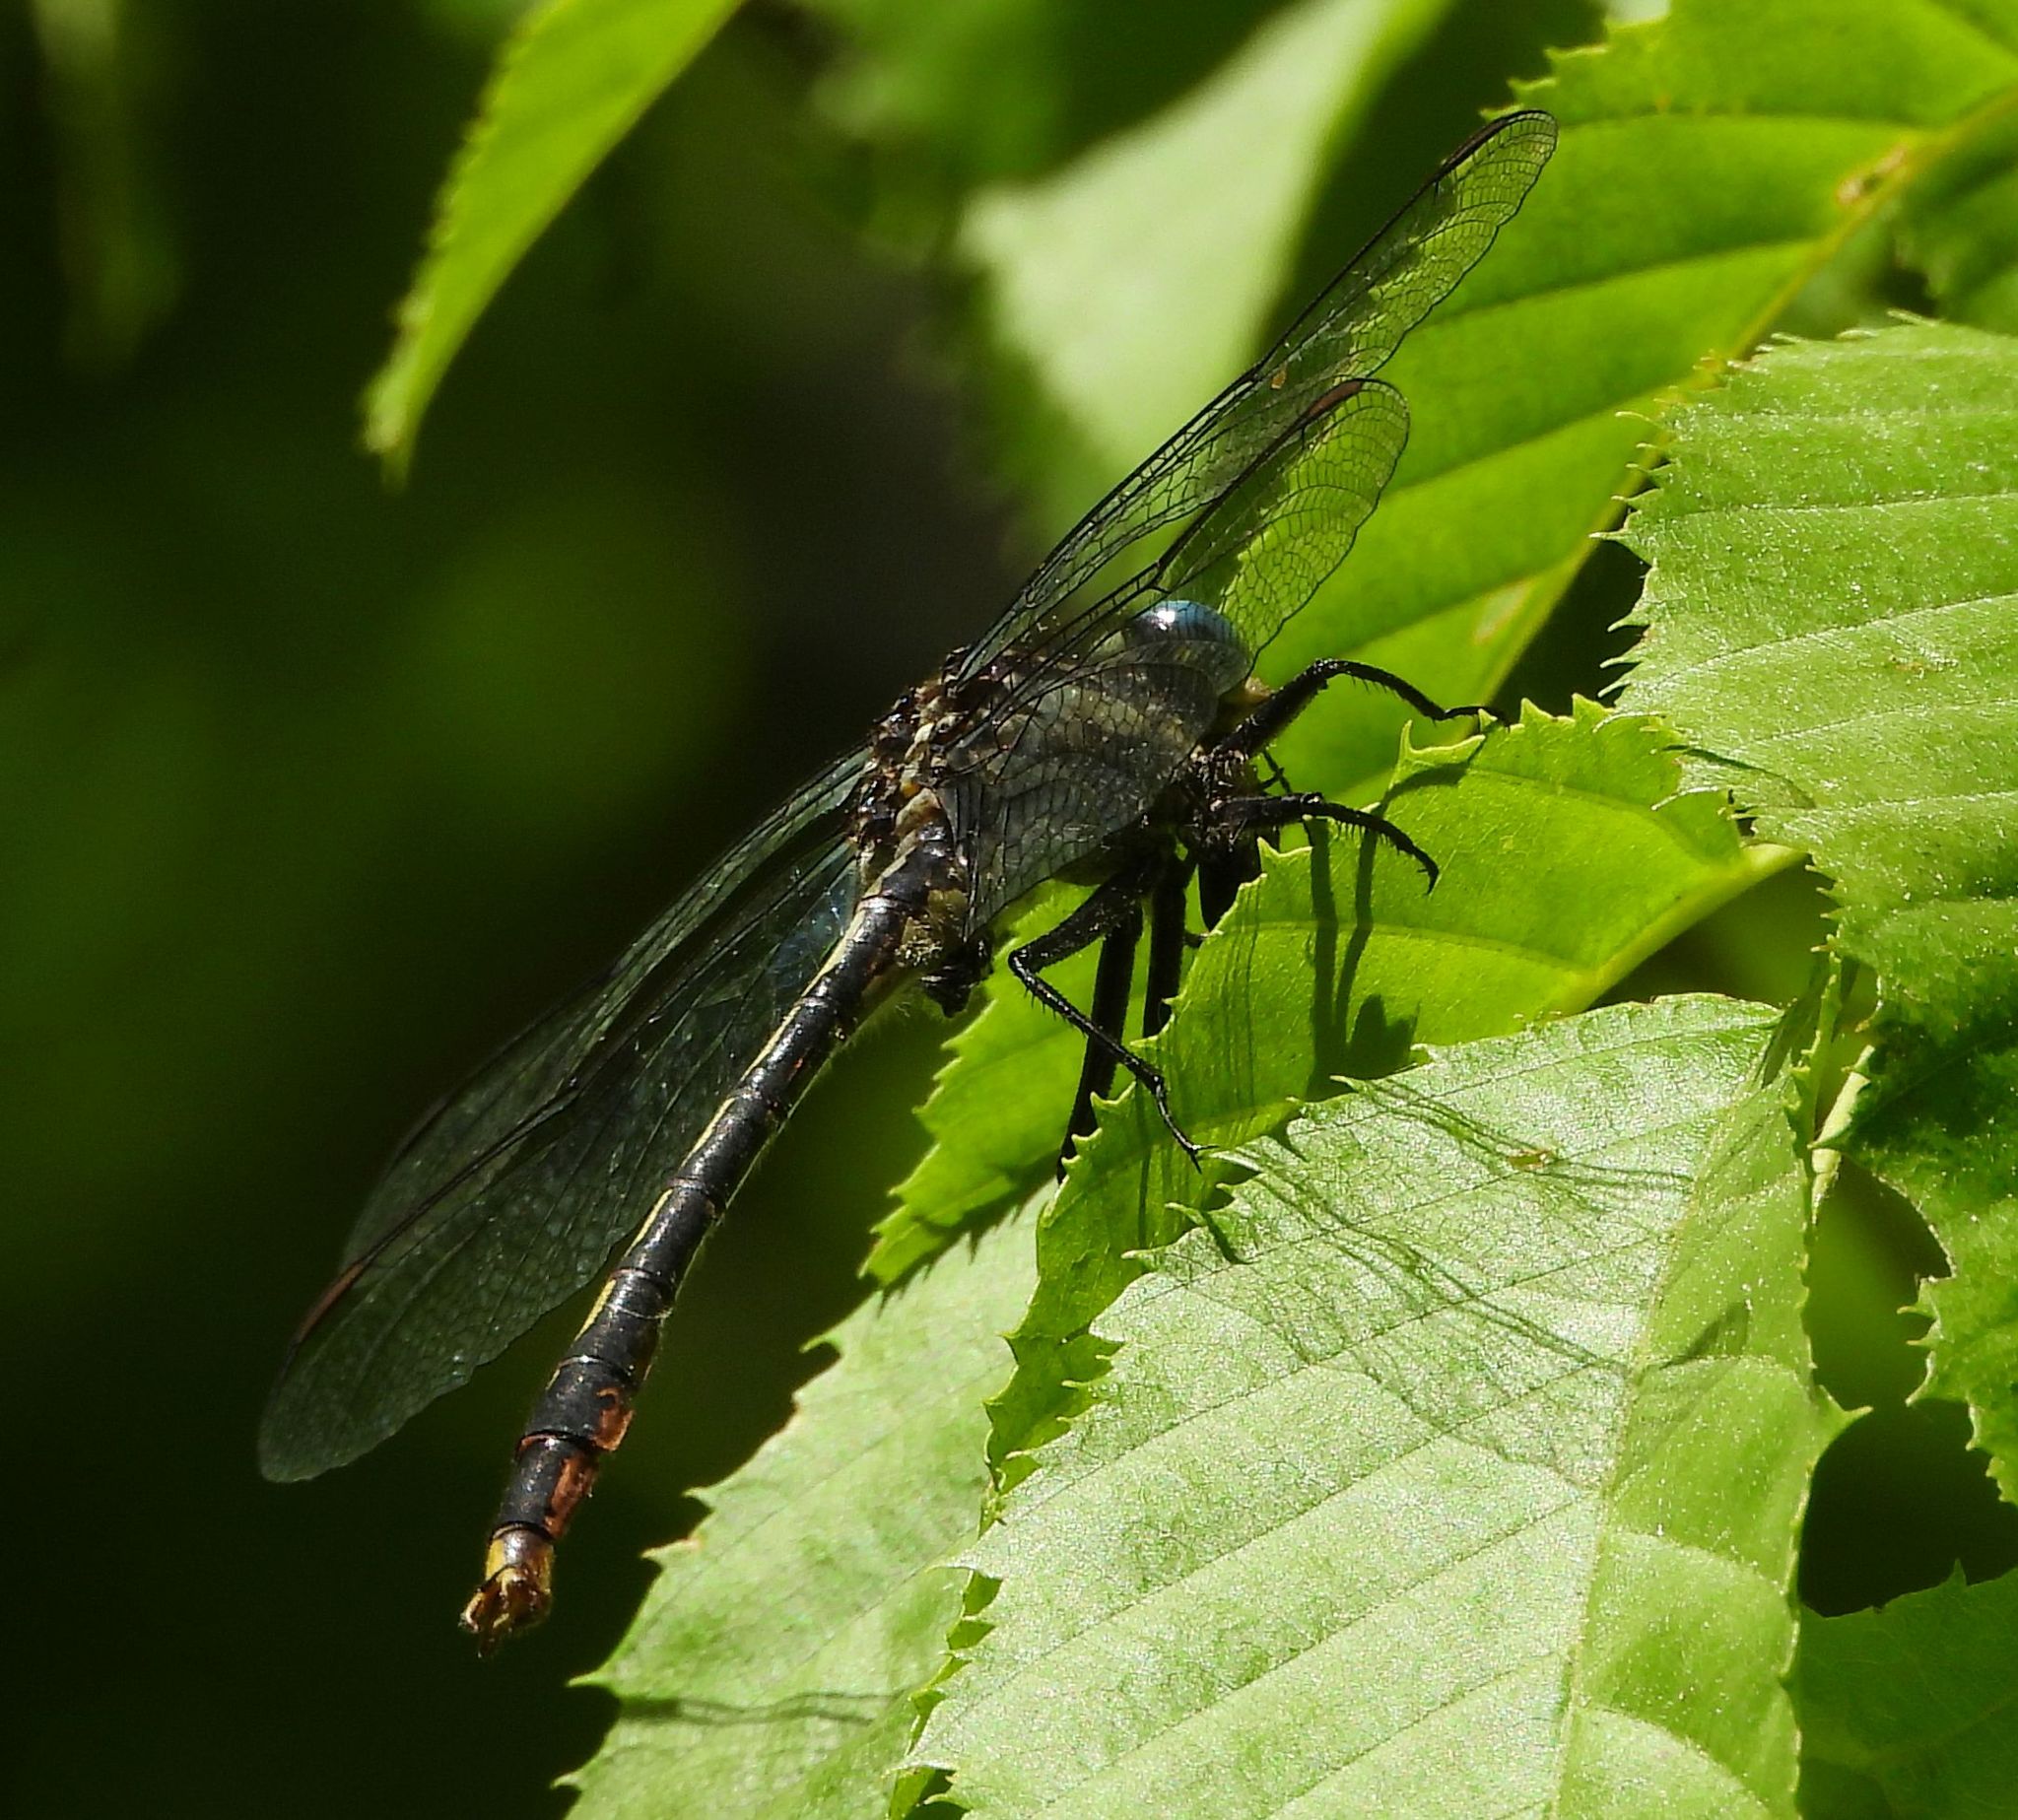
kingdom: Animalia
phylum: Arthropoda
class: Insecta
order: Odonata
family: Gomphidae
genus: Arigomphus
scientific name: Arigomphus furcifer
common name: Lilypad clubtail
